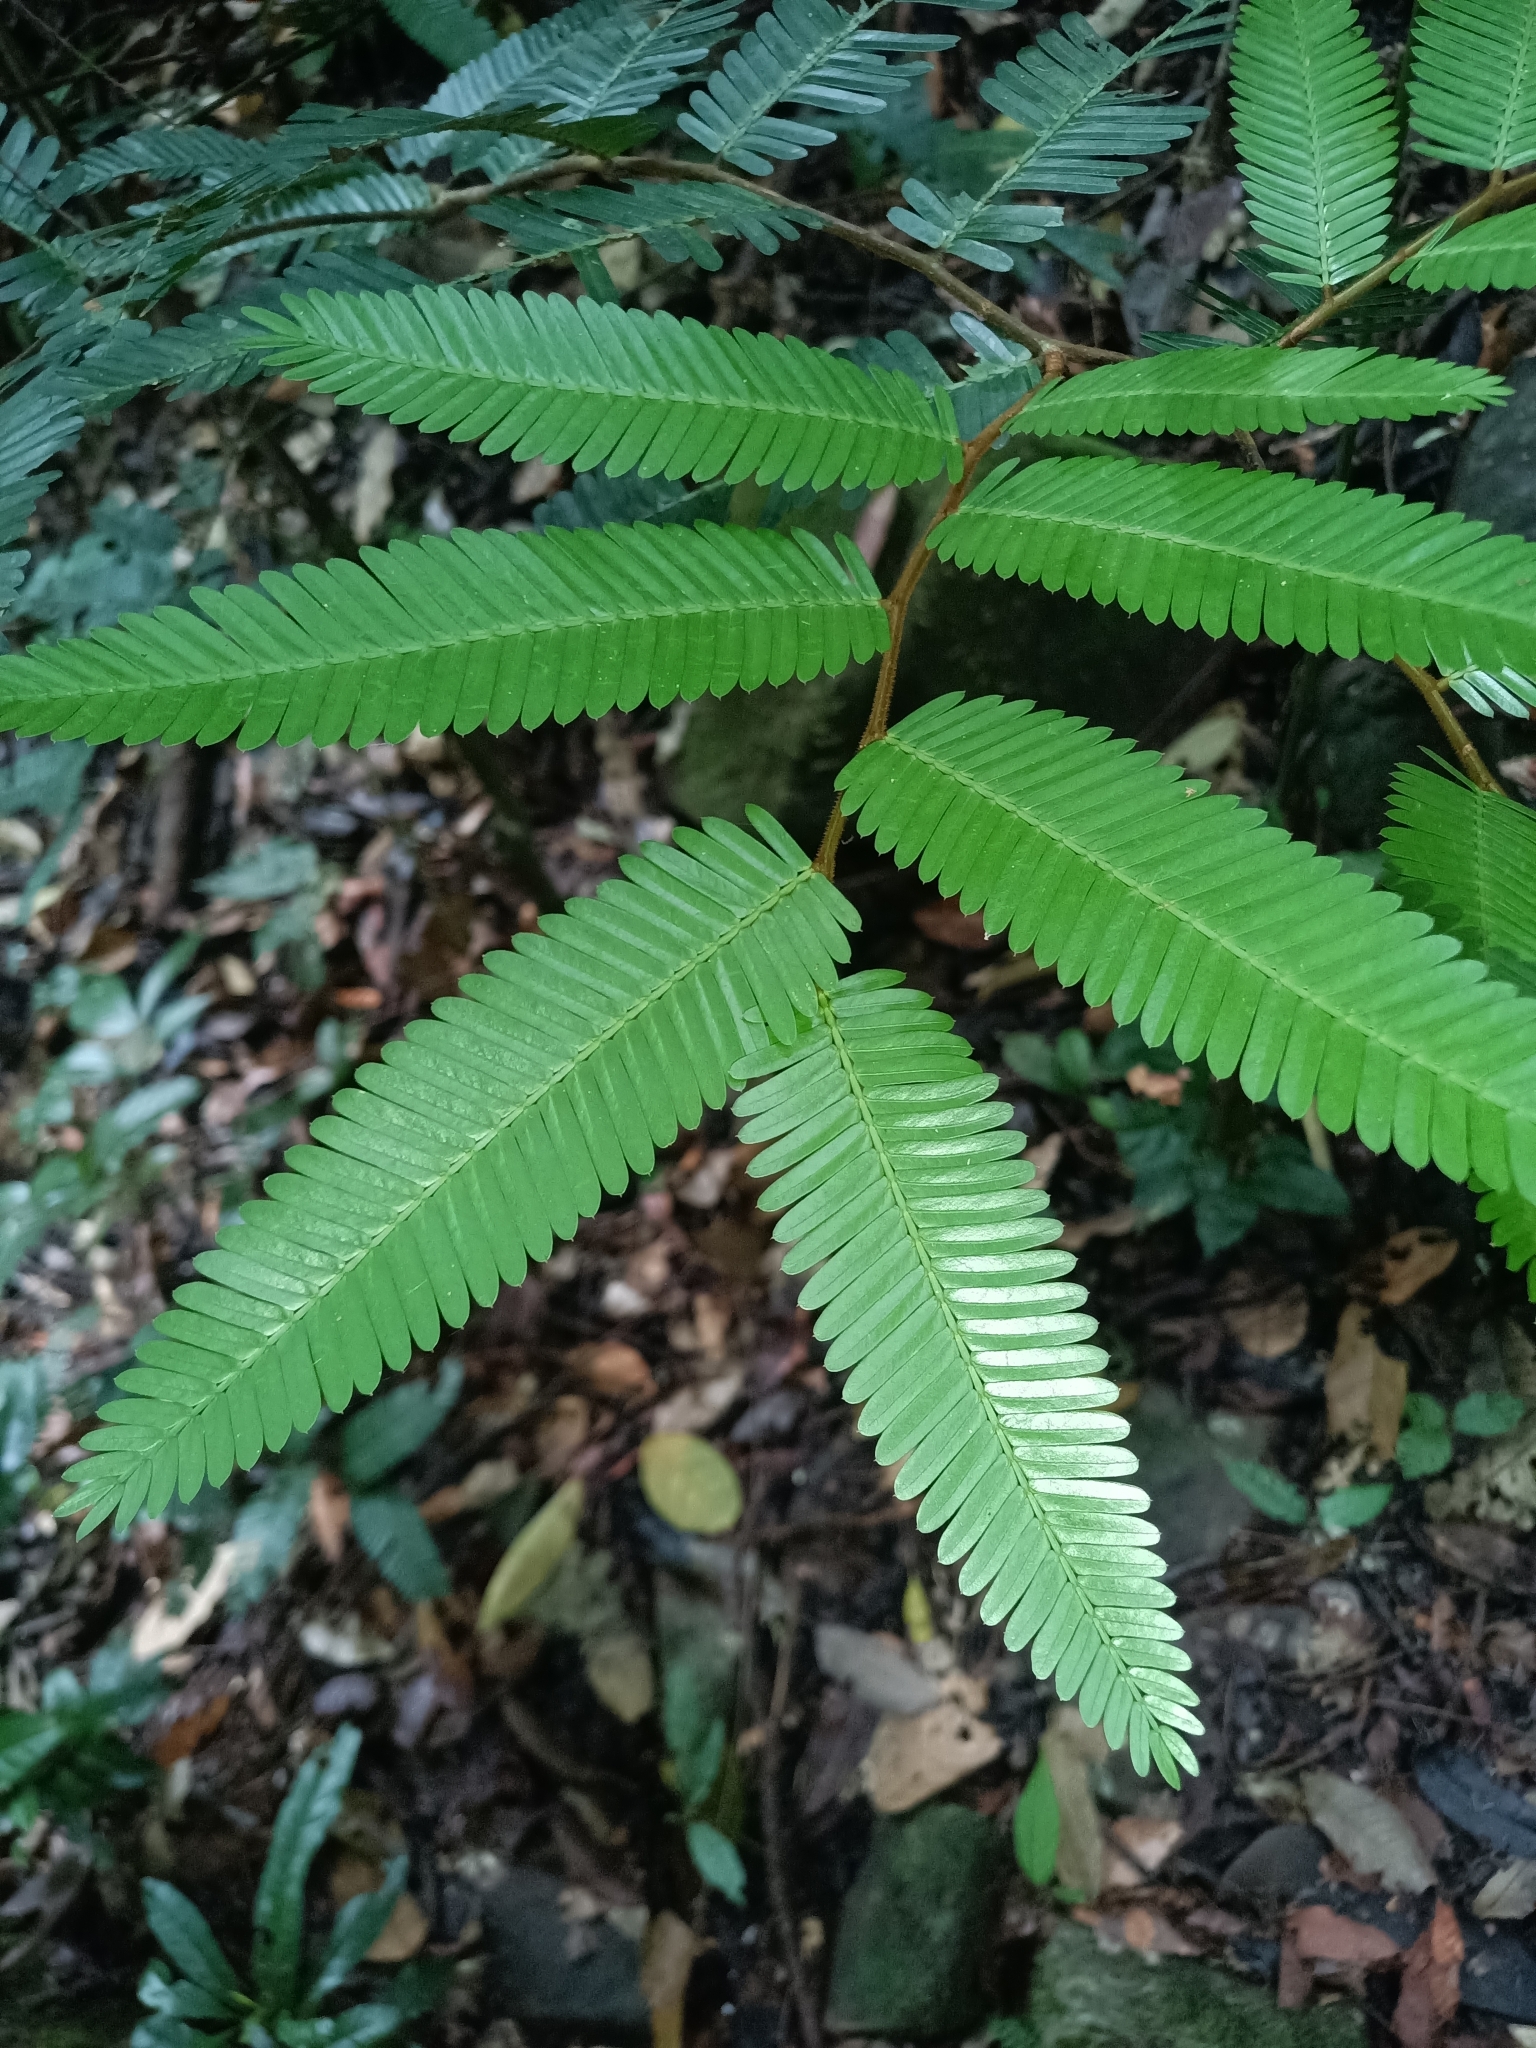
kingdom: Plantae
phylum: Tracheophyta
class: Magnoliopsida
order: Fabales
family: Fabaceae
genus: Paloue
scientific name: Paloue princeps
